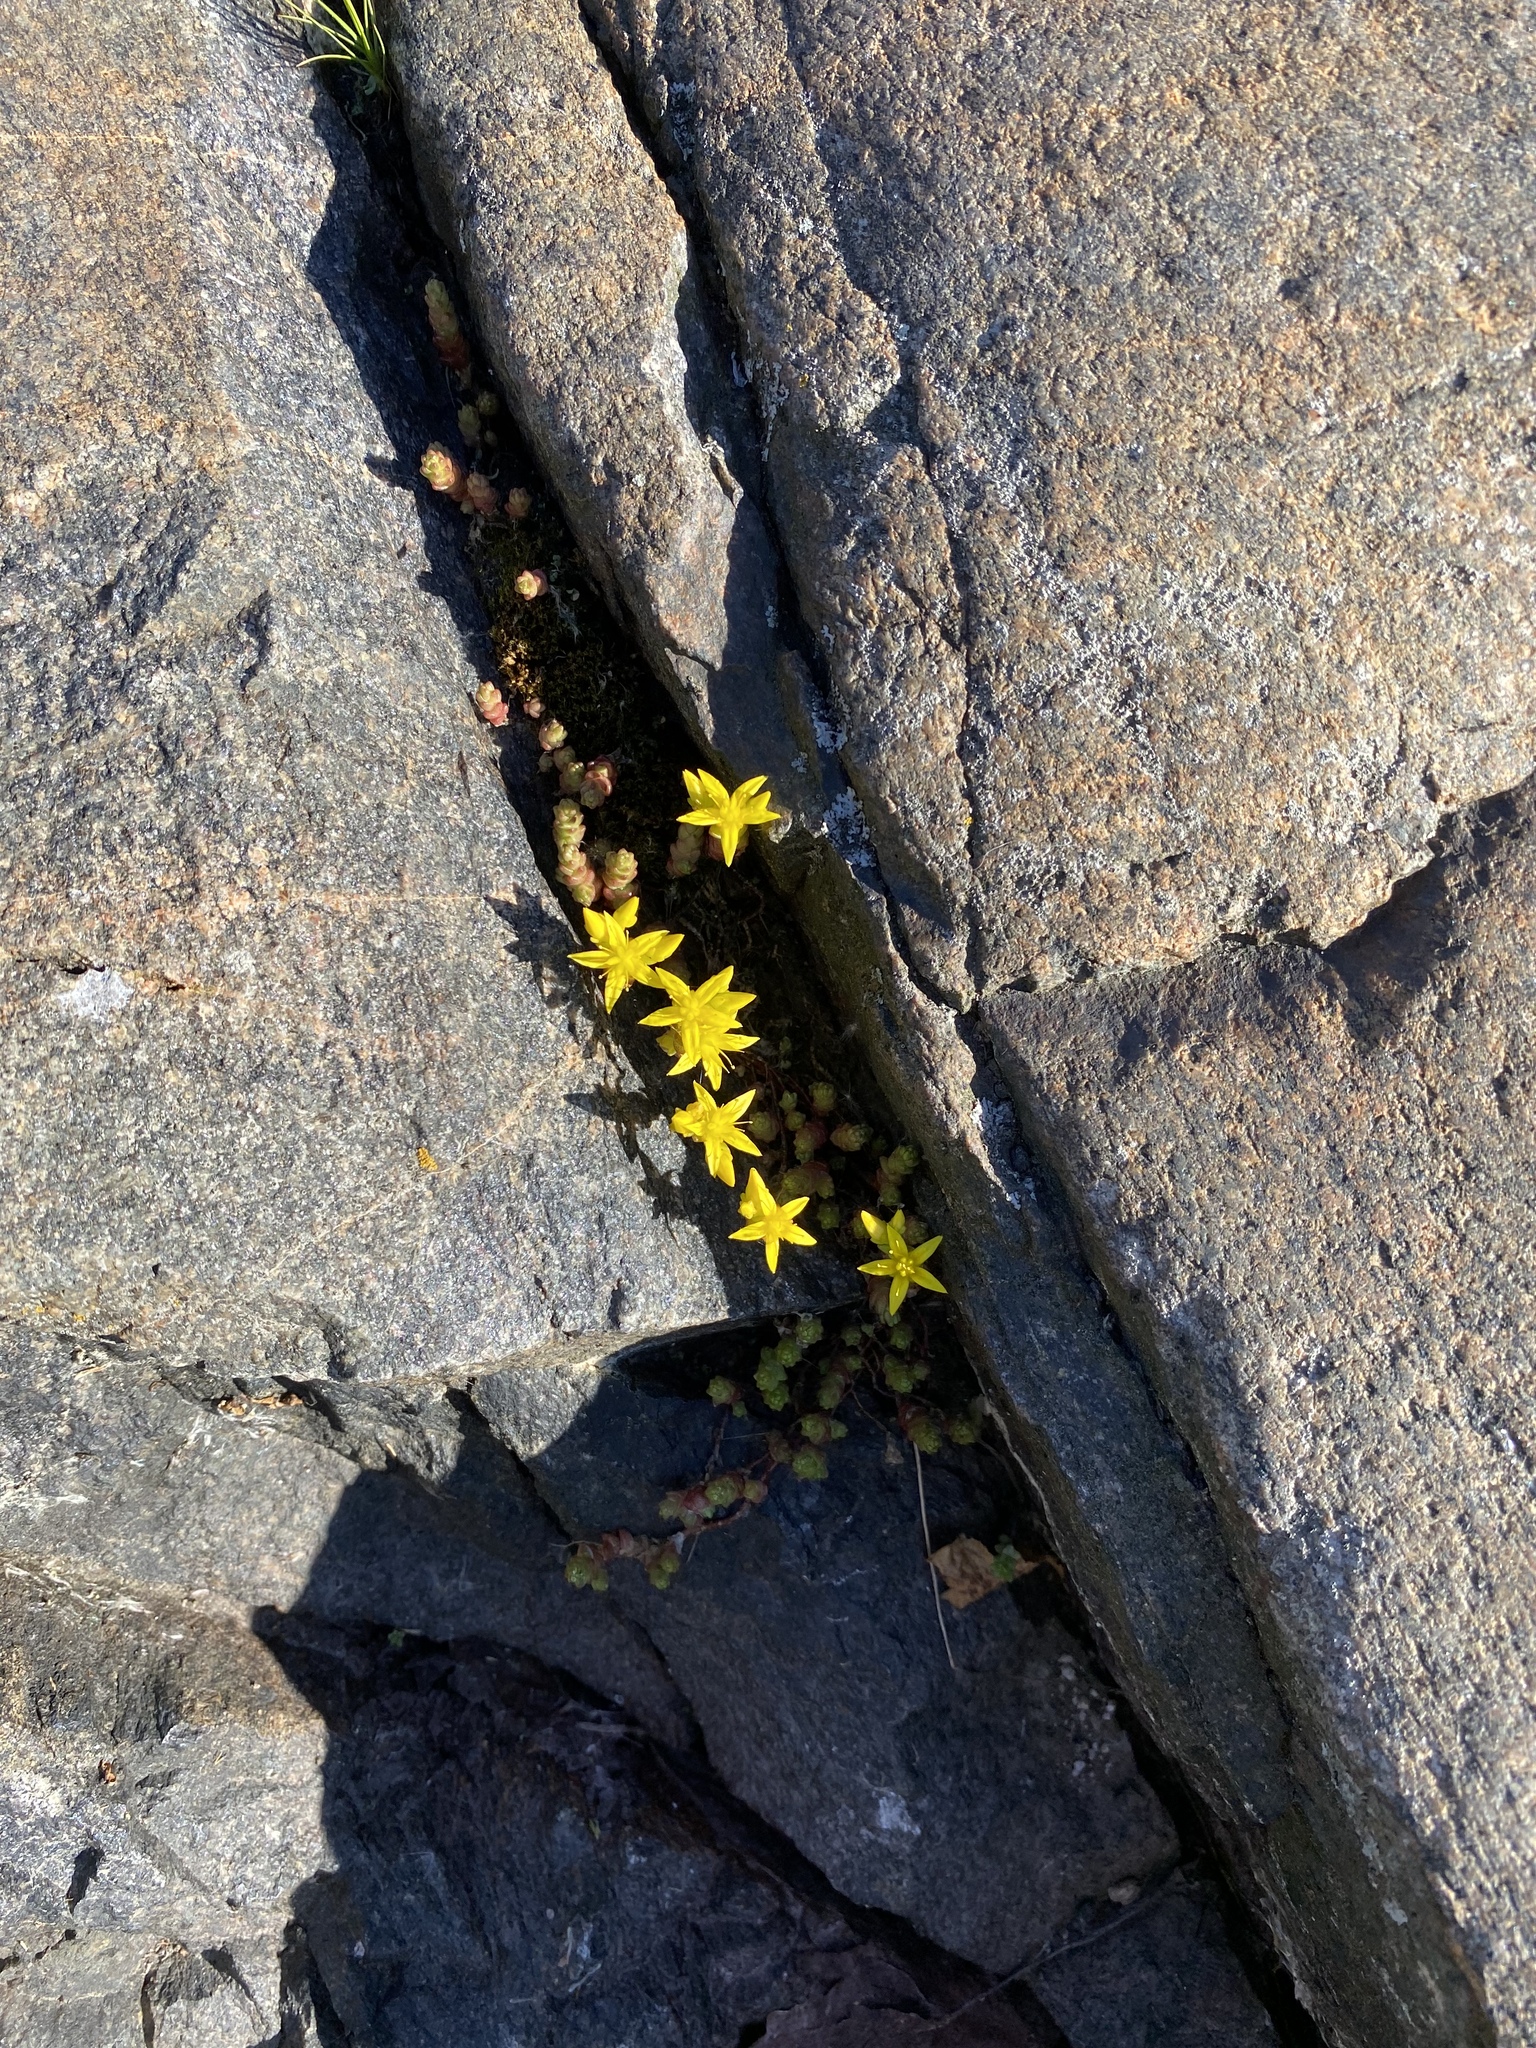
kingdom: Plantae
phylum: Tracheophyta
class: Magnoliopsida
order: Saxifragales
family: Crassulaceae
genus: Sedum
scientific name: Sedum acre
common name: Biting stonecrop
